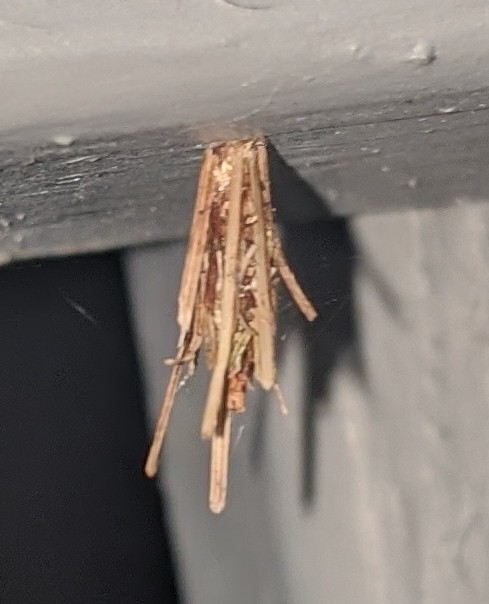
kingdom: Animalia
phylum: Arthropoda
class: Insecta
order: Lepidoptera
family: Psychidae
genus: Psyche
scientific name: Psyche casta
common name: Common sweep
